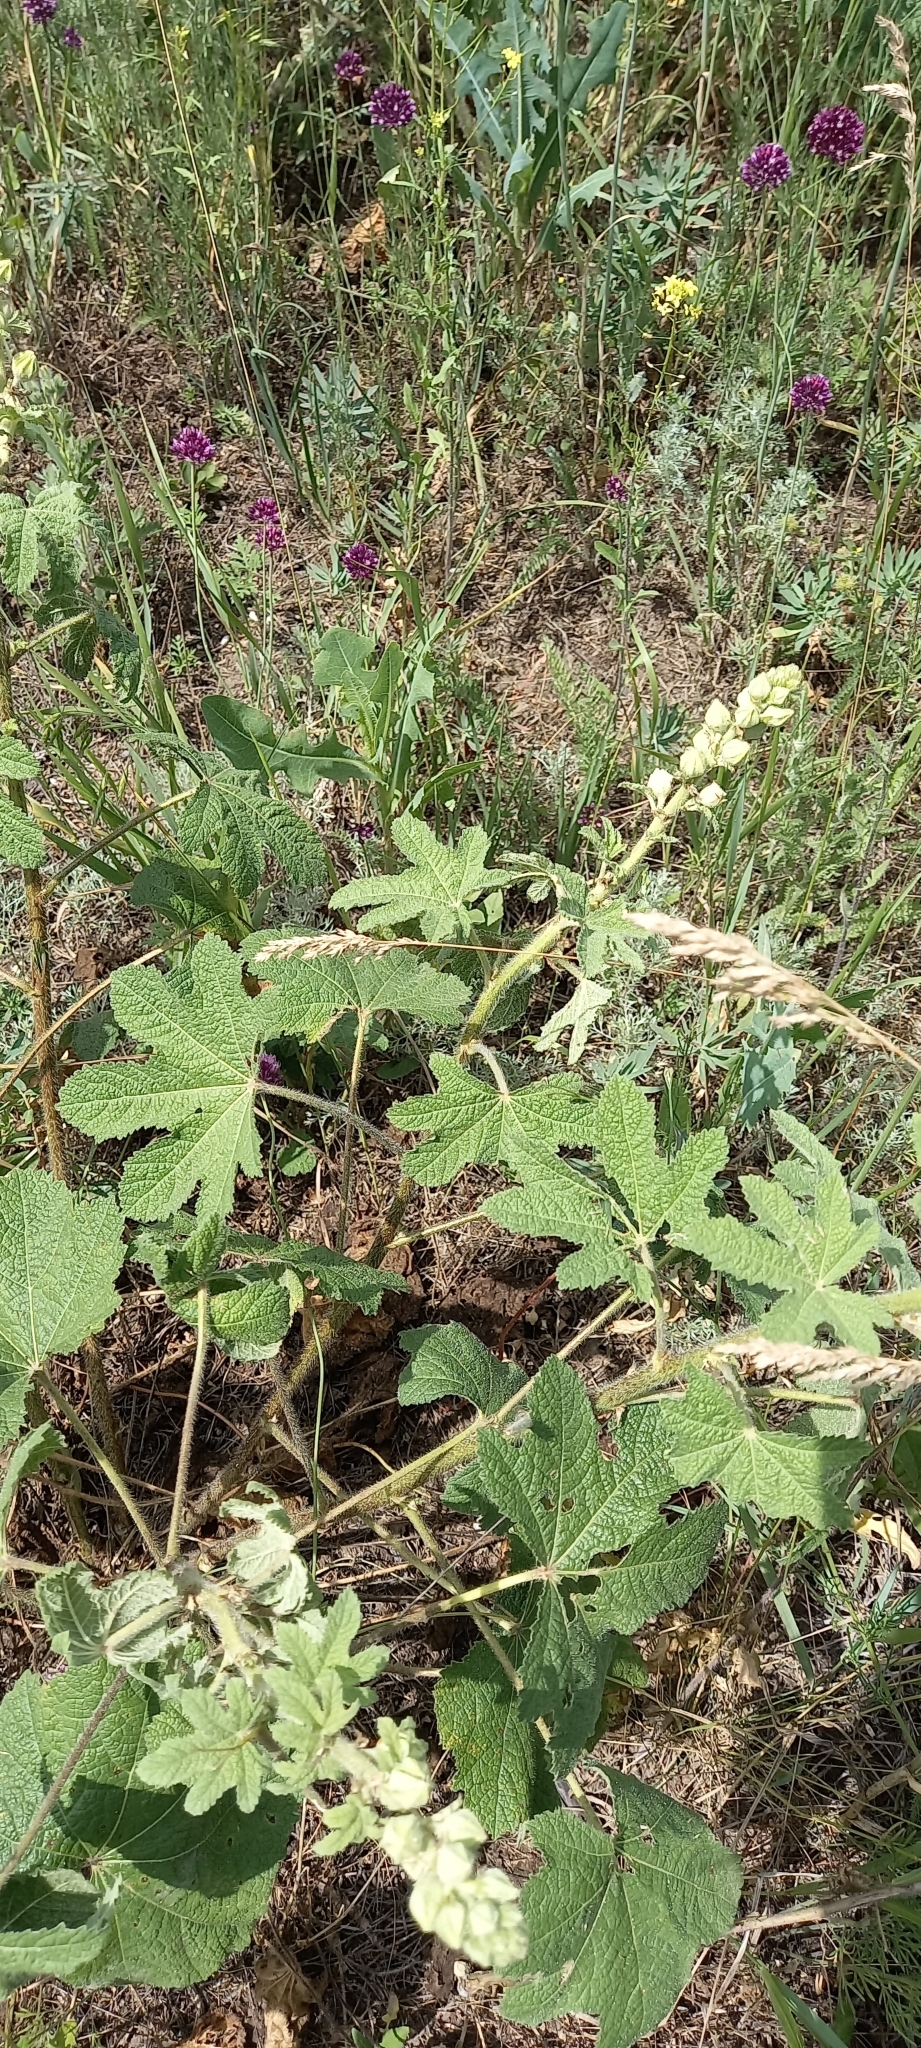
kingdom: Plantae
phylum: Tracheophyta
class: Magnoliopsida
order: Malvales
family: Malvaceae
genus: Alcea
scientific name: Alcea rugosa
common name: Russian hollyhock
